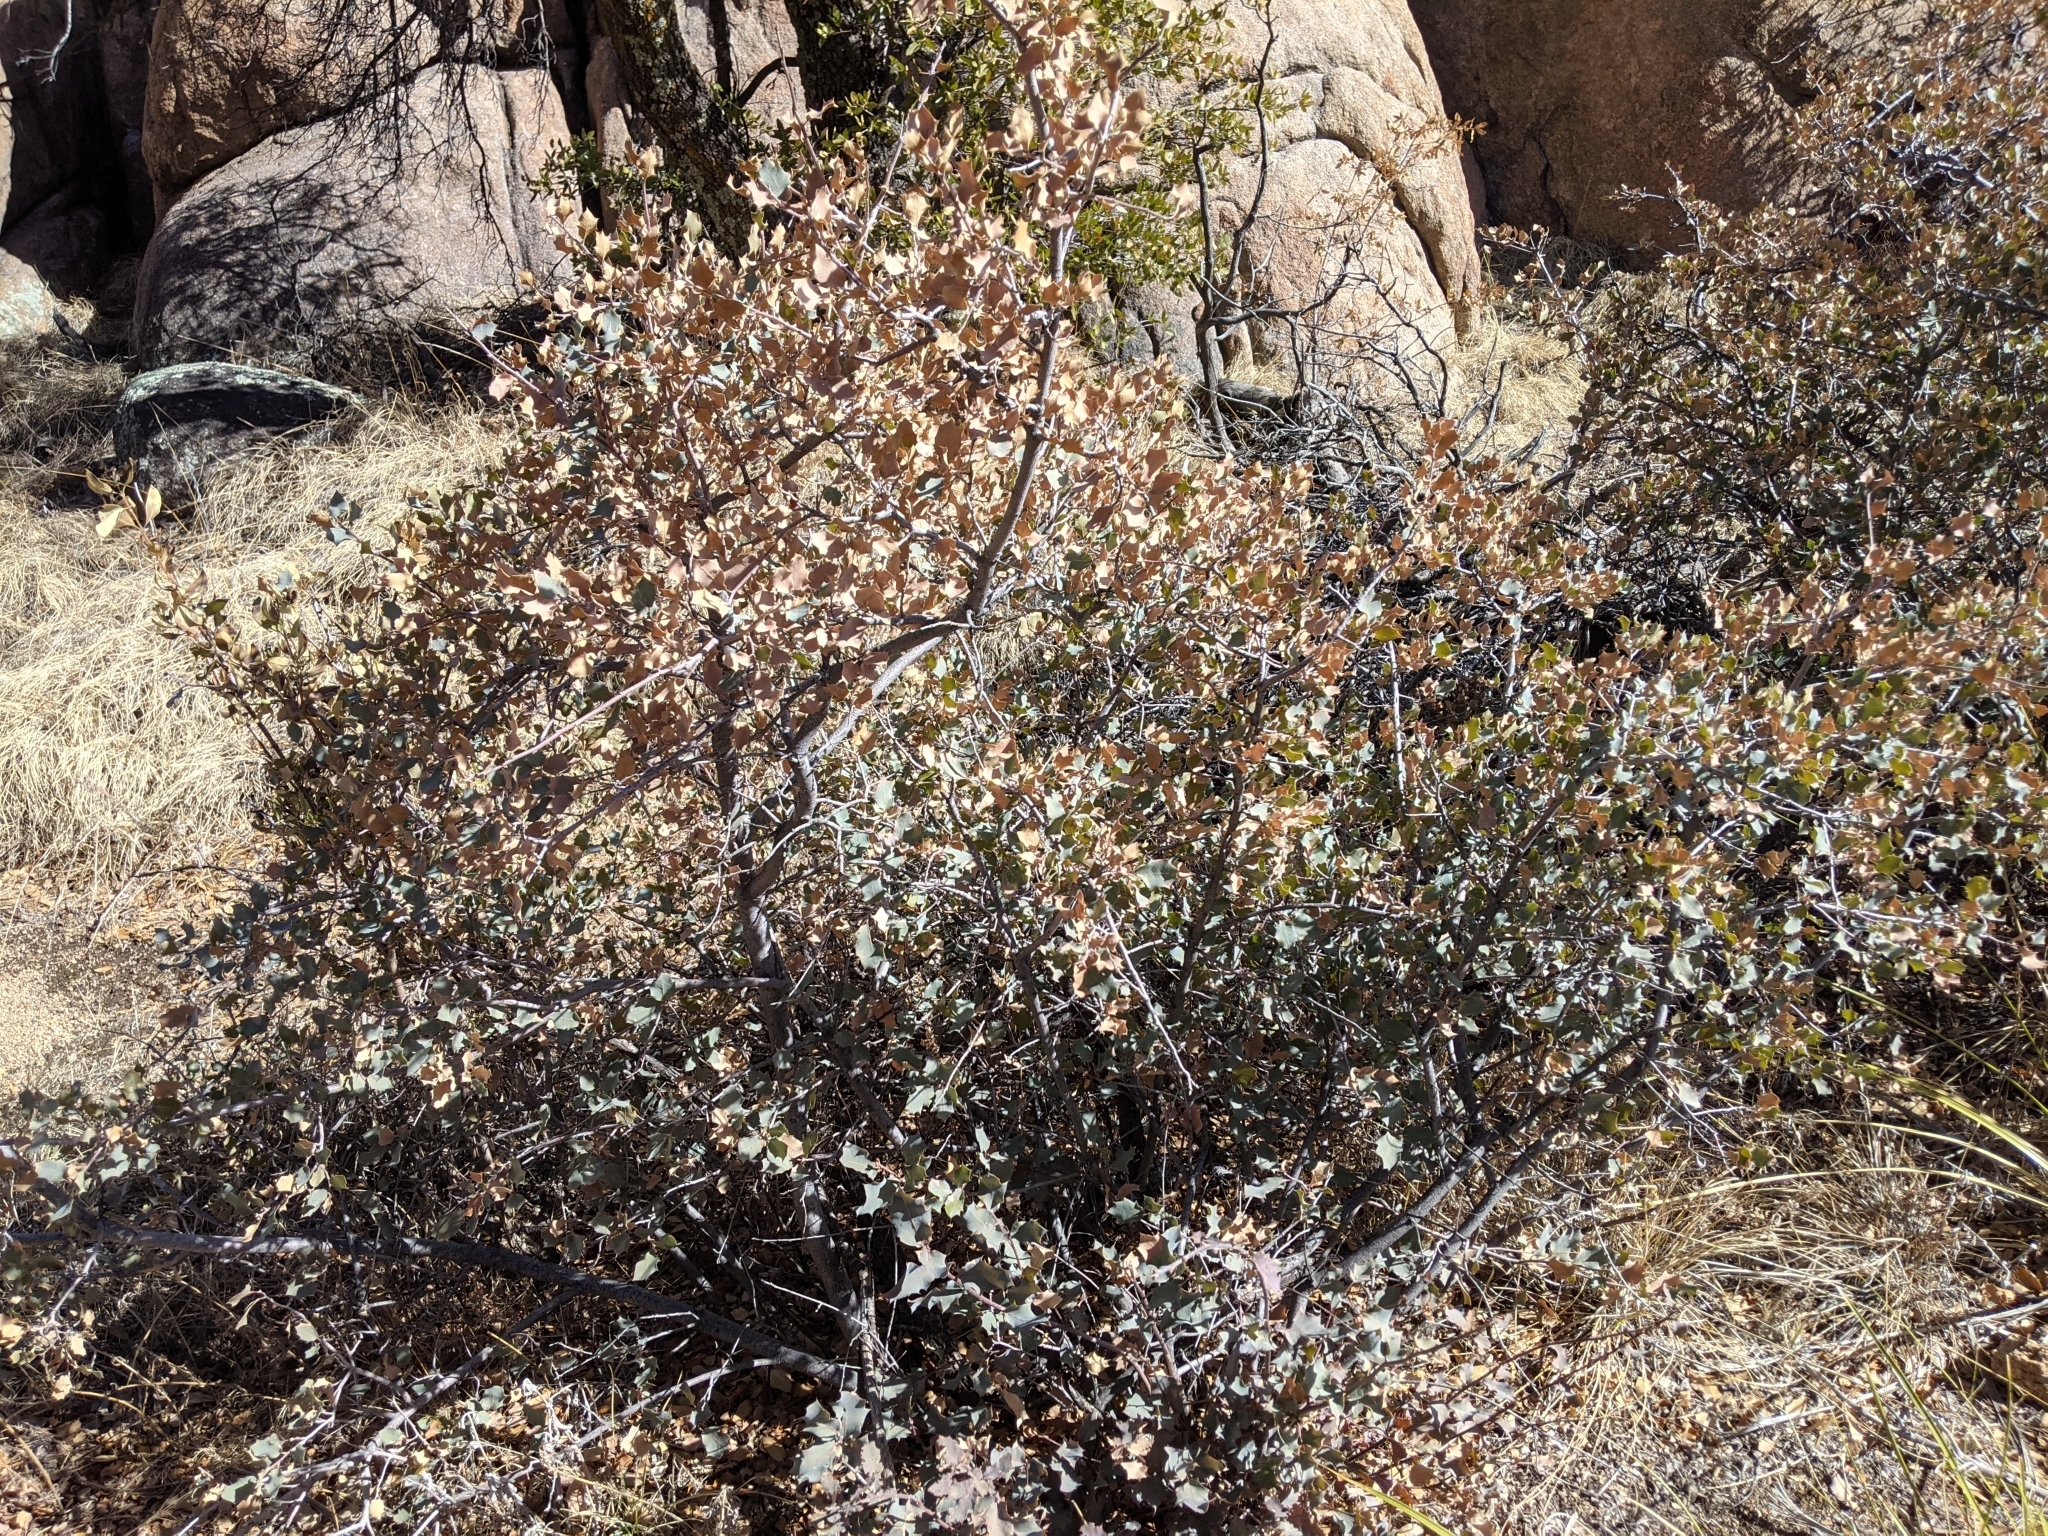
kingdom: Plantae
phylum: Tracheophyta
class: Magnoliopsida
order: Fagales
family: Fagaceae
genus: Quercus
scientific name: Quercus turbinella
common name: Sonoran scrub oak
